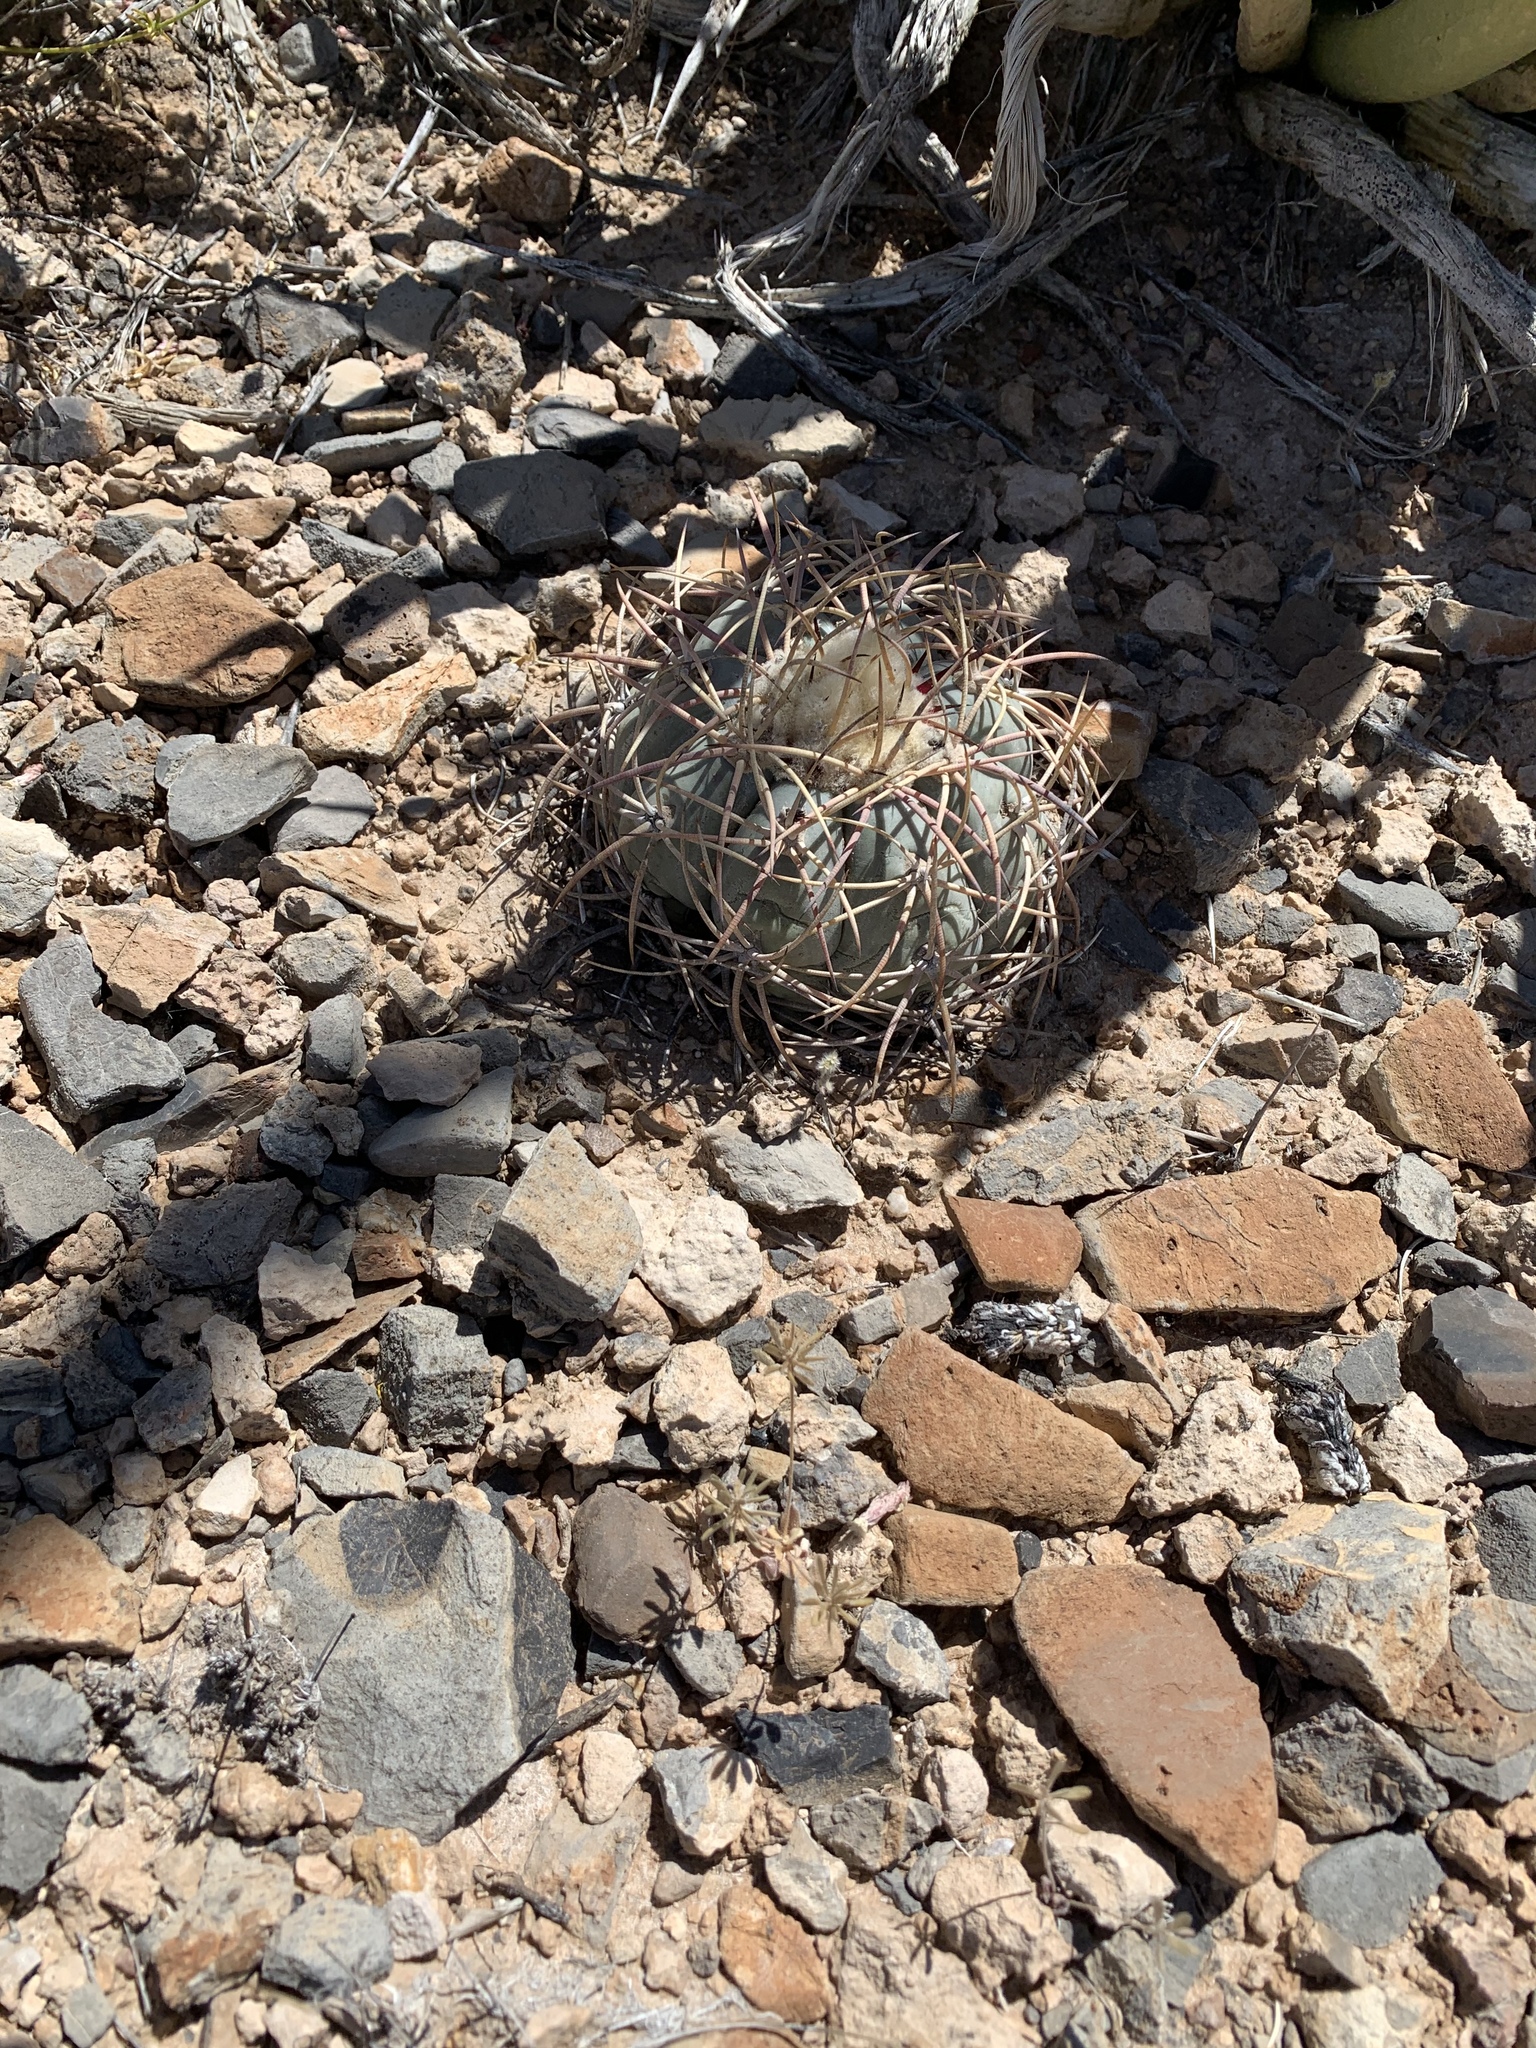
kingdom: Plantae
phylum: Tracheophyta
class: Magnoliopsida
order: Caryophyllales
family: Cactaceae
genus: Echinocactus
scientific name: Echinocactus horizonthalonius
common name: Devilshead
